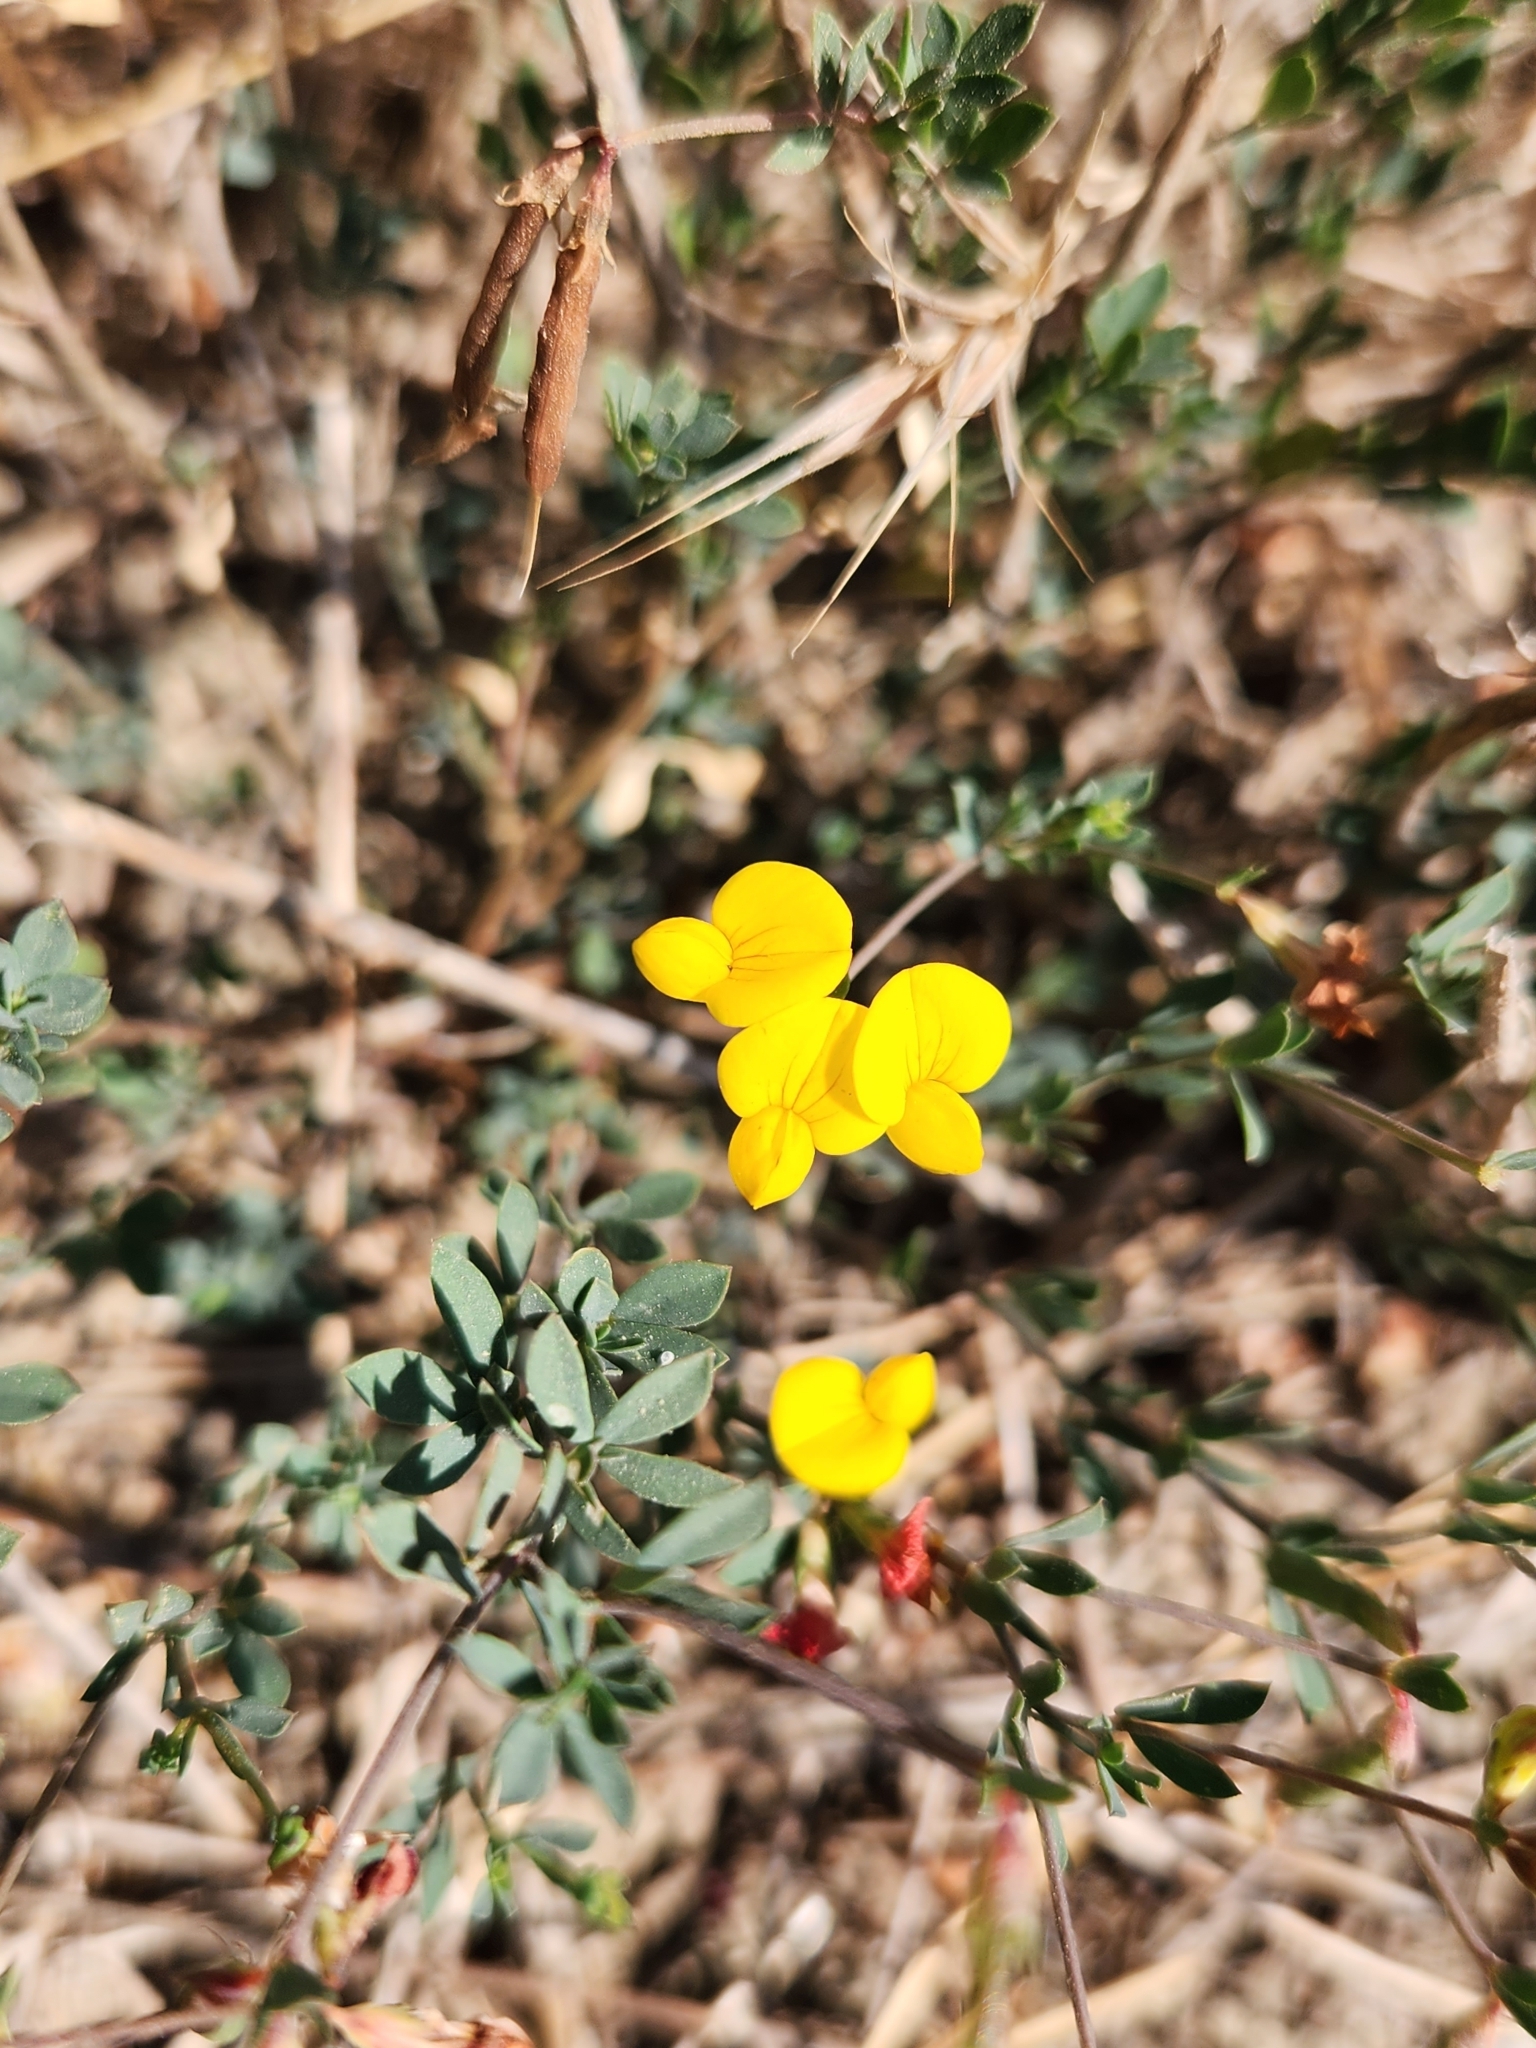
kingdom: Plantae
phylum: Tracheophyta
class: Magnoliopsida
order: Fabales
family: Fabaceae
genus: Acmispon
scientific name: Acmispon maritimus
